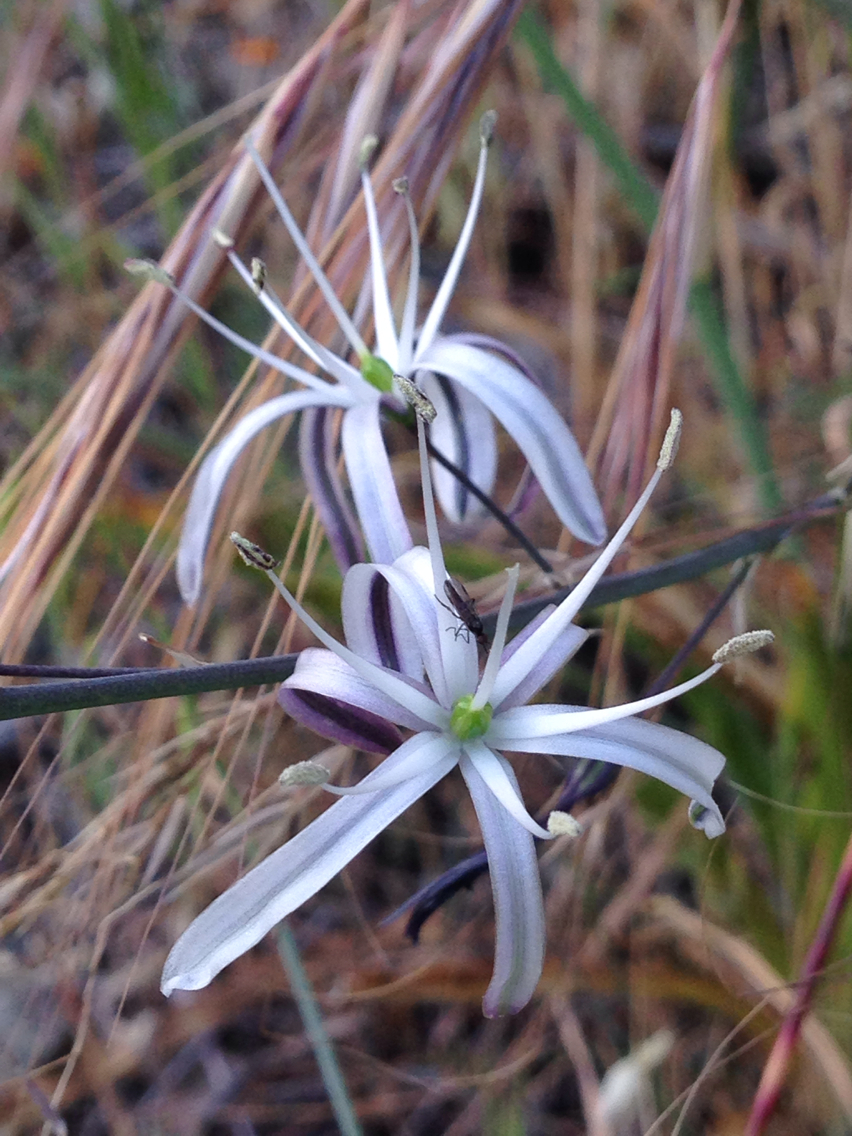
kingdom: Plantae
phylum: Tracheophyta
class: Liliopsida
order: Asparagales
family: Asparagaceae
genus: Chlorogalum
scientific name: Chlorogalum pomeridianum
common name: Amole
